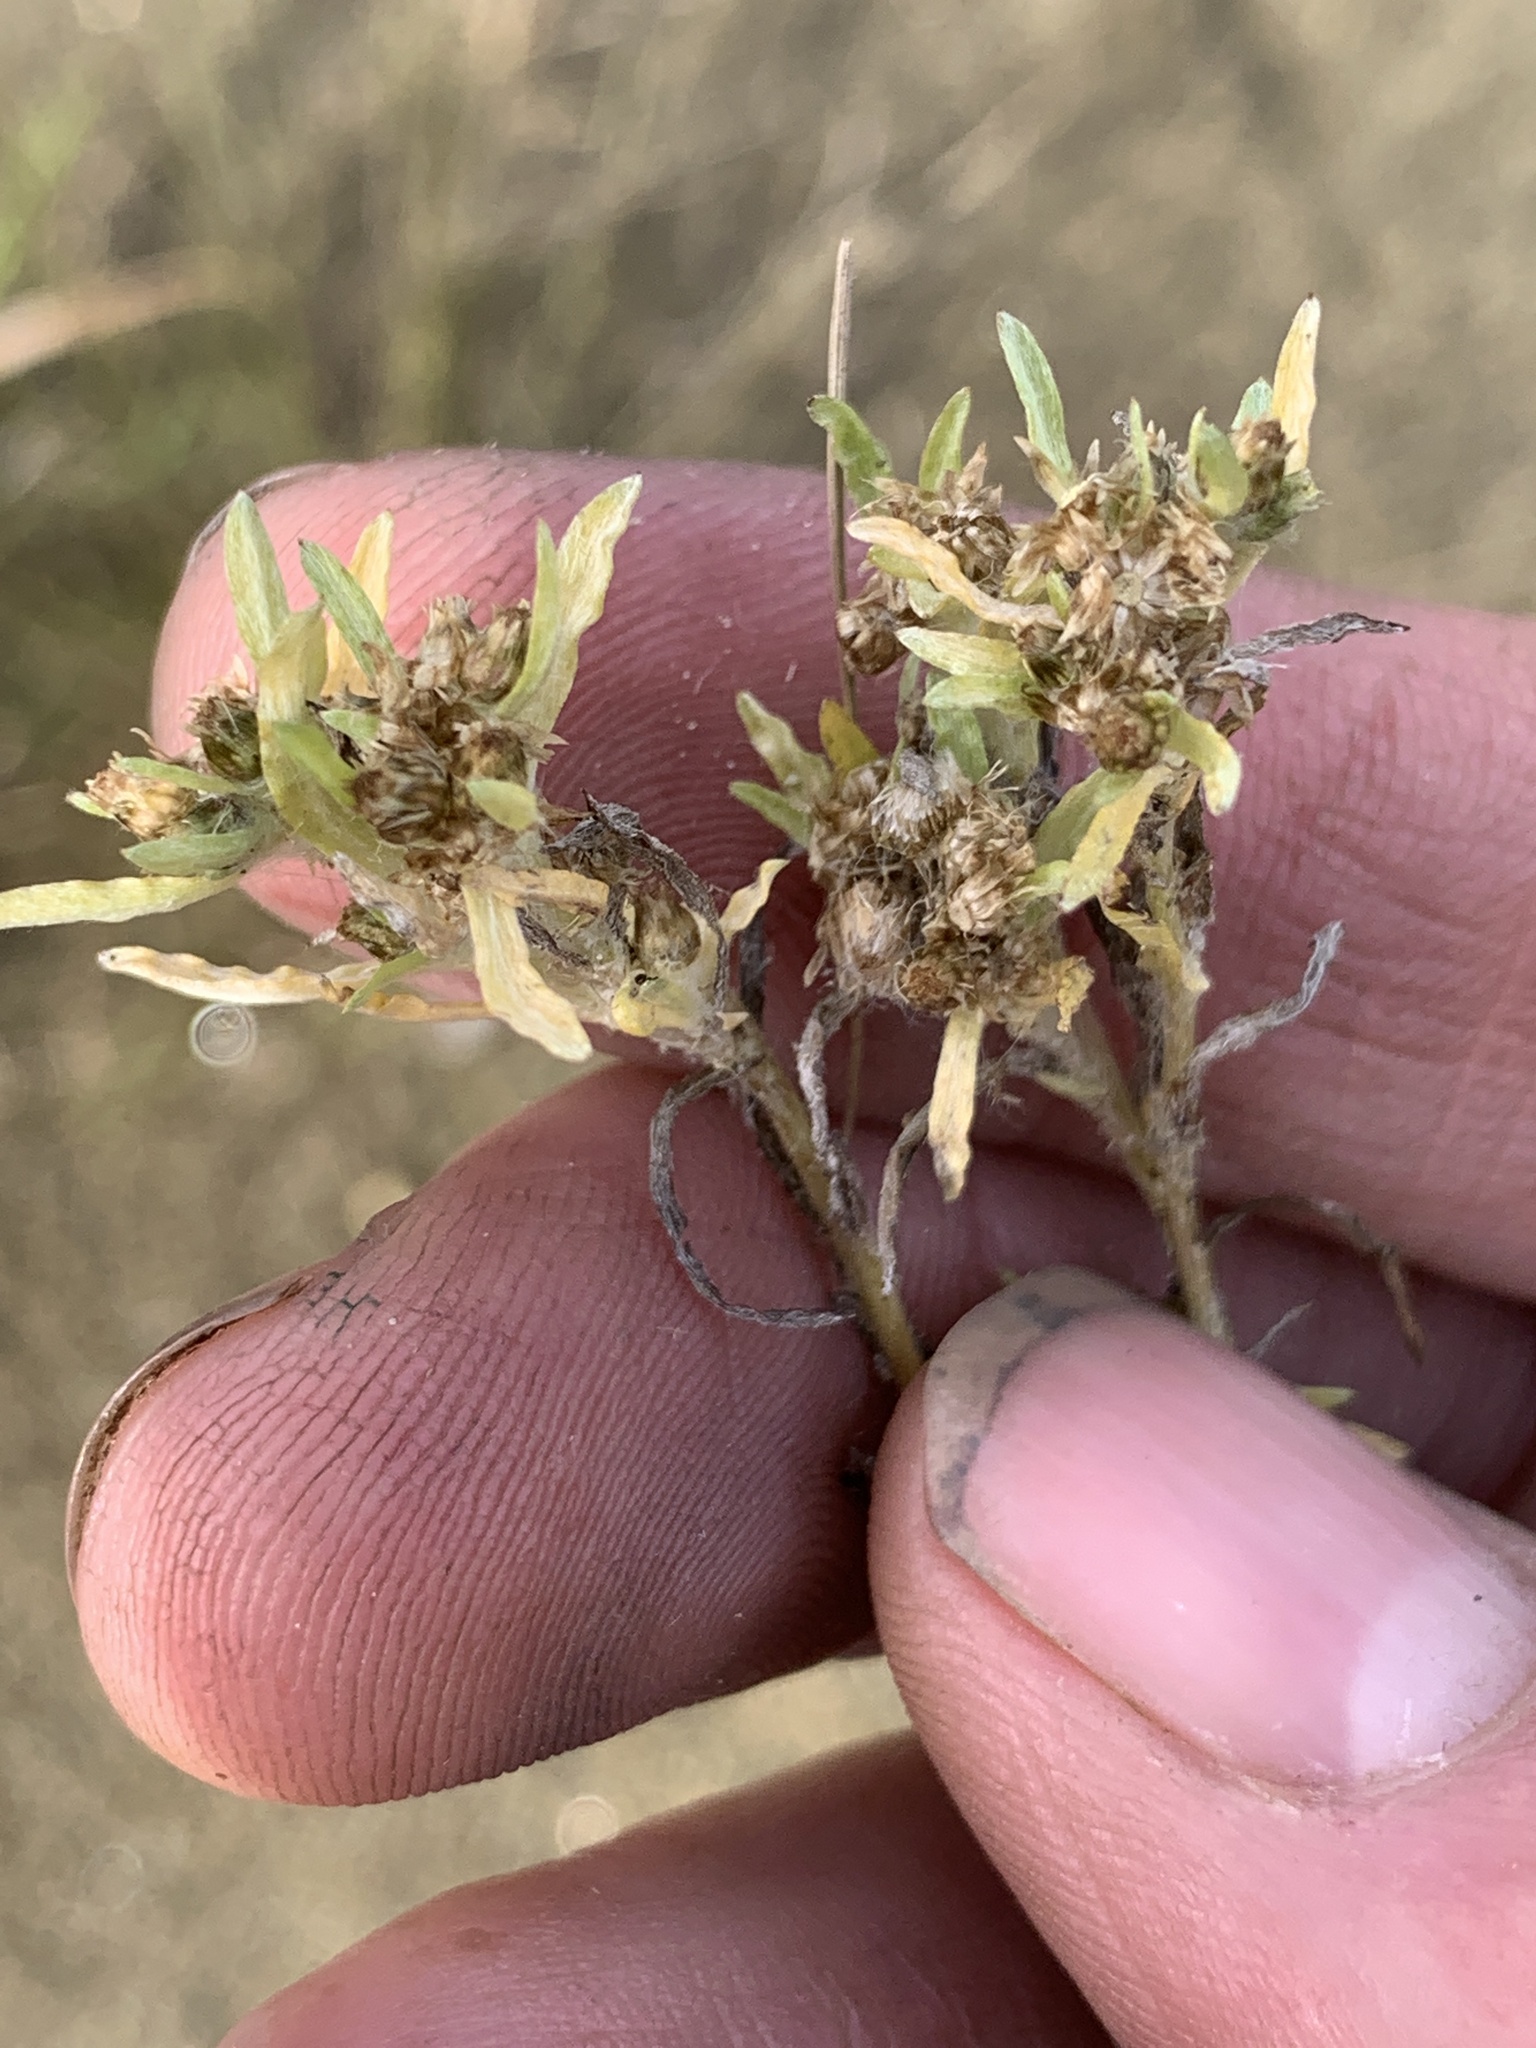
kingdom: Plantae
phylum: Tracheophyta
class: Magnoliopsida
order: Asterales
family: Asteraceae
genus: Gnaphalium
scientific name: Gnaphalium uliginosum
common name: Marsh cudweed
